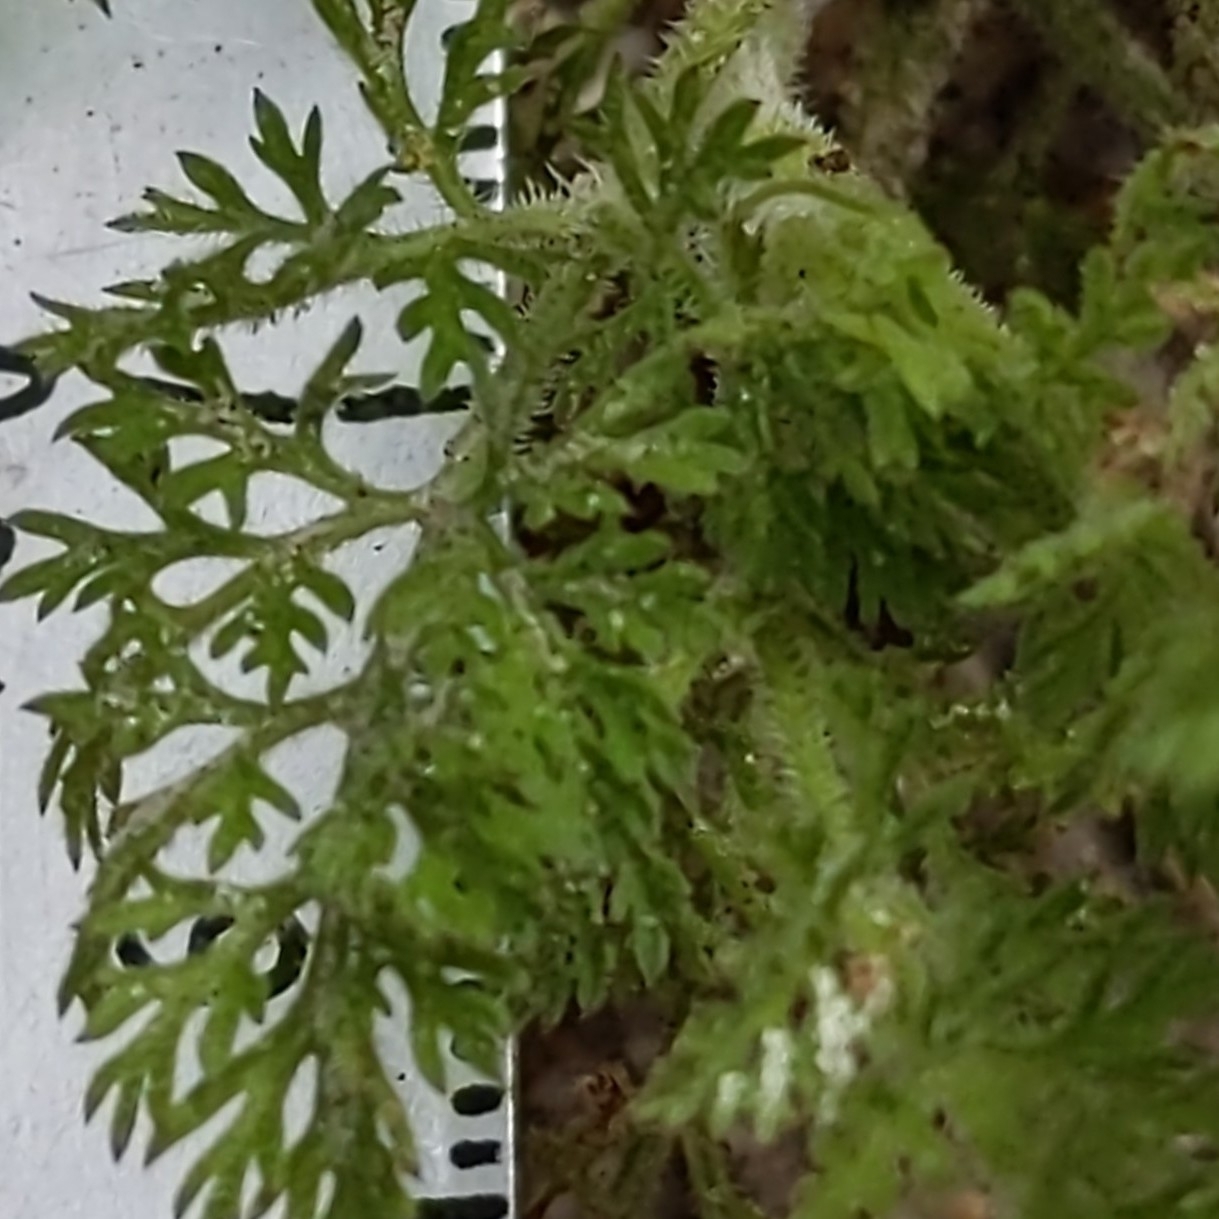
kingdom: Plantae
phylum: Tracheophyta
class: Magnoliopsida
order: Apiales
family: Apiaceae
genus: Daucus
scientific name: Daucus pusillus
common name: Southwest wild carrot
